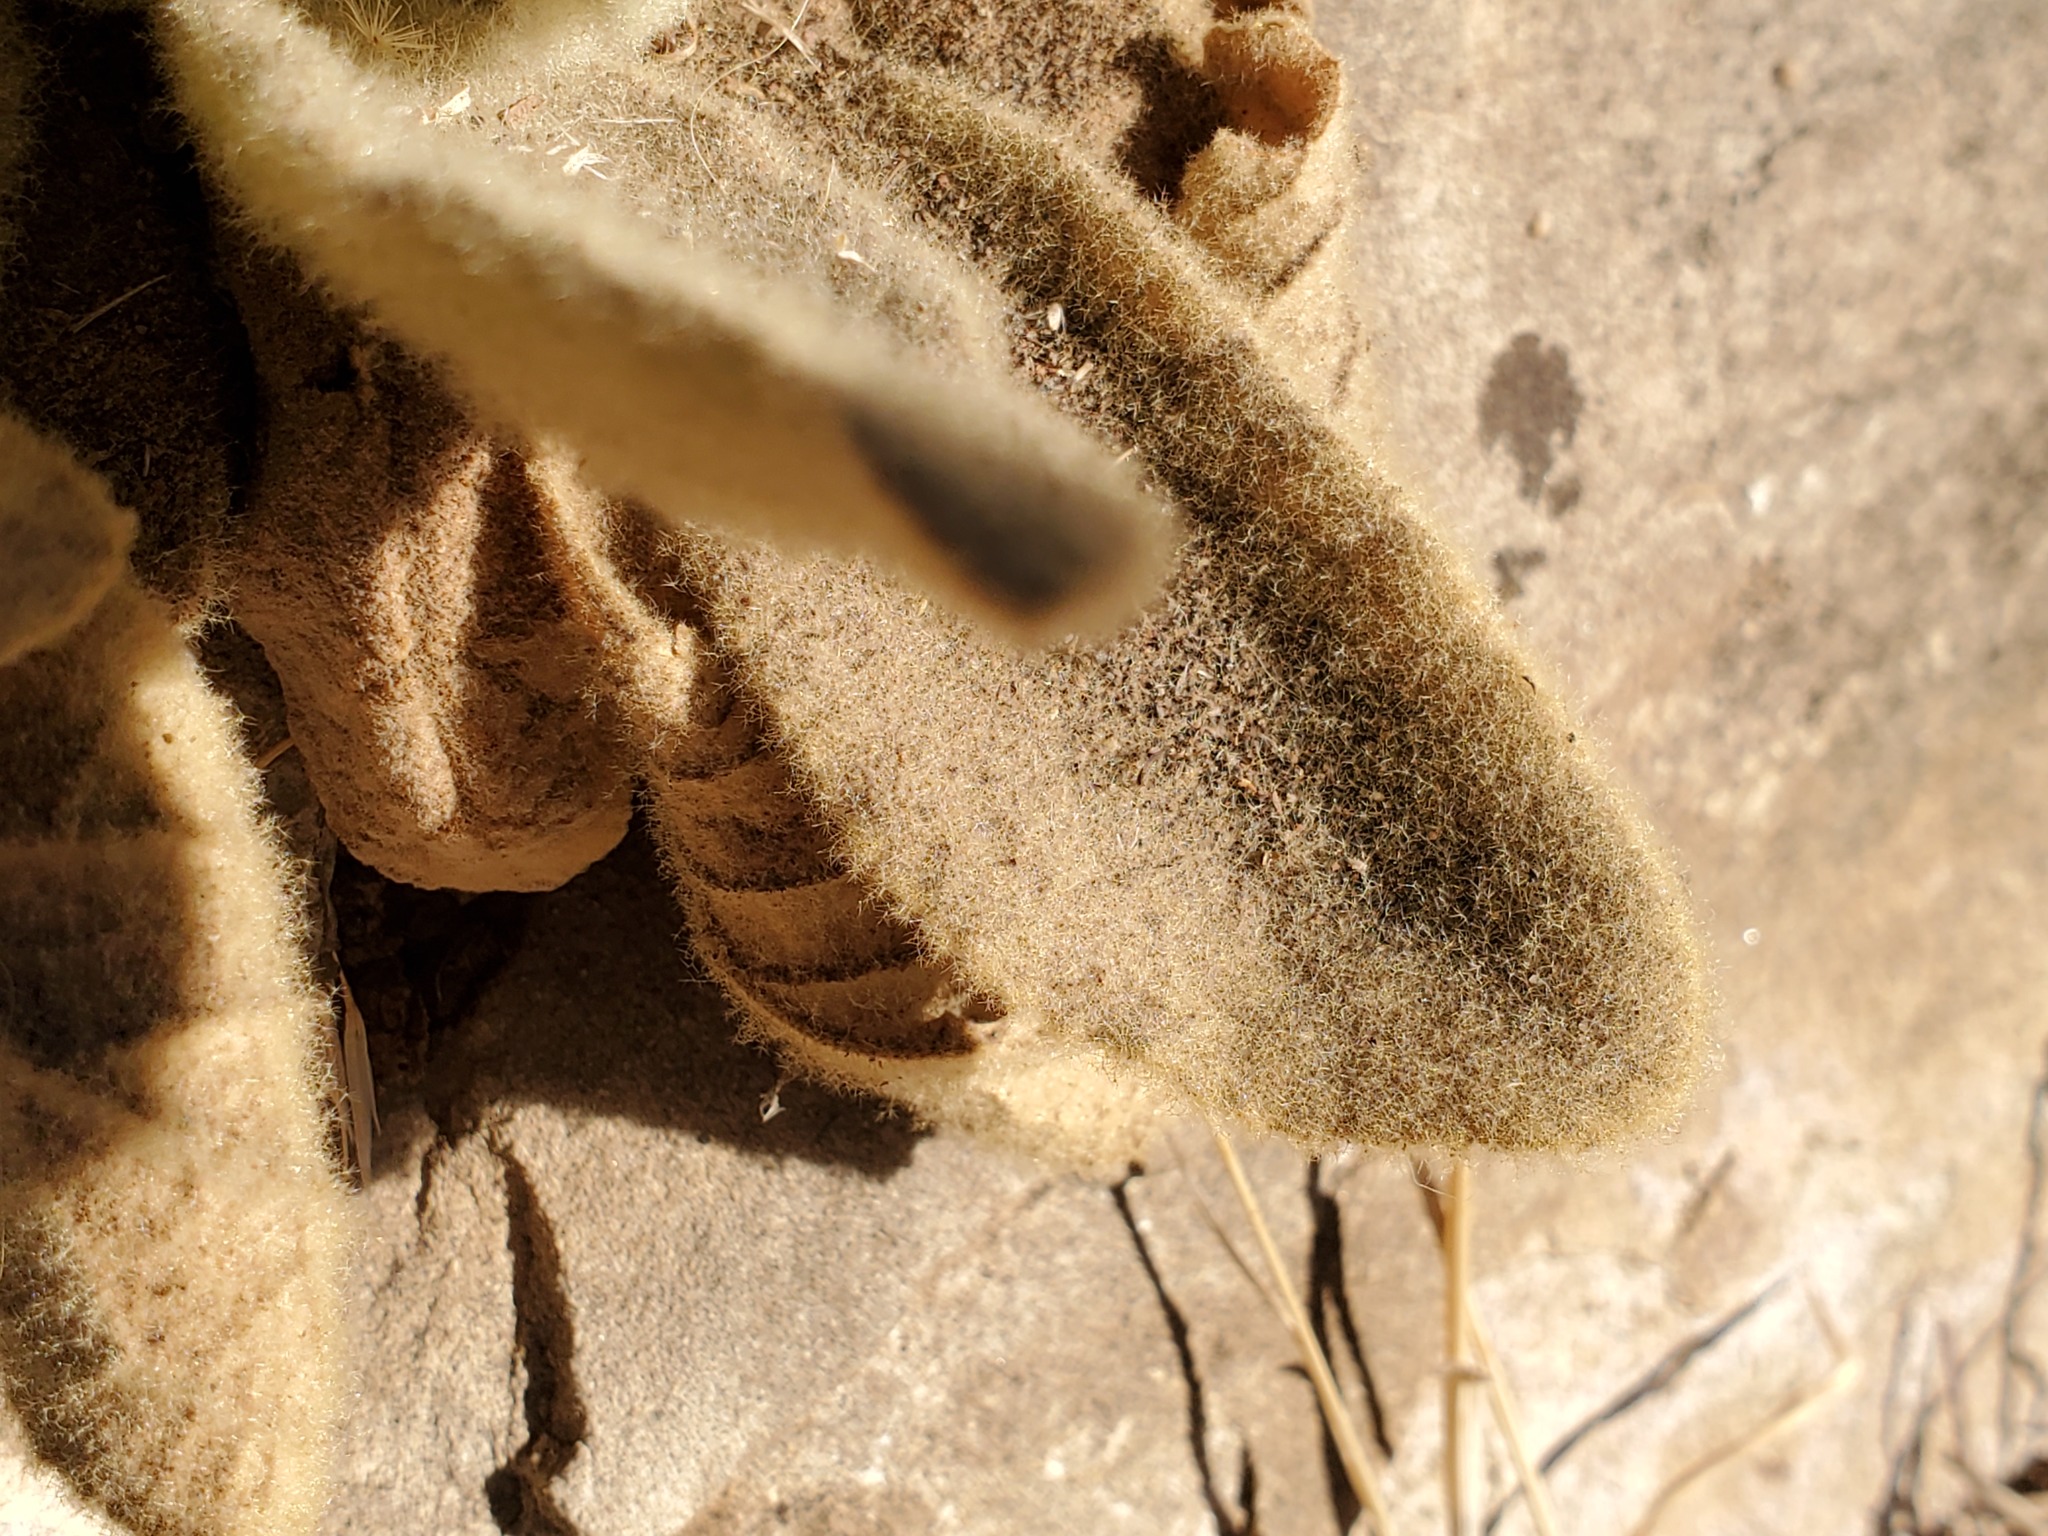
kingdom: Plantae
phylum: Tracheophyta
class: Magnoliopsida
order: Lamiales
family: Scrophulariaceae
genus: Verbascum
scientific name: Verbascum thapsus
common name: Common mullein
